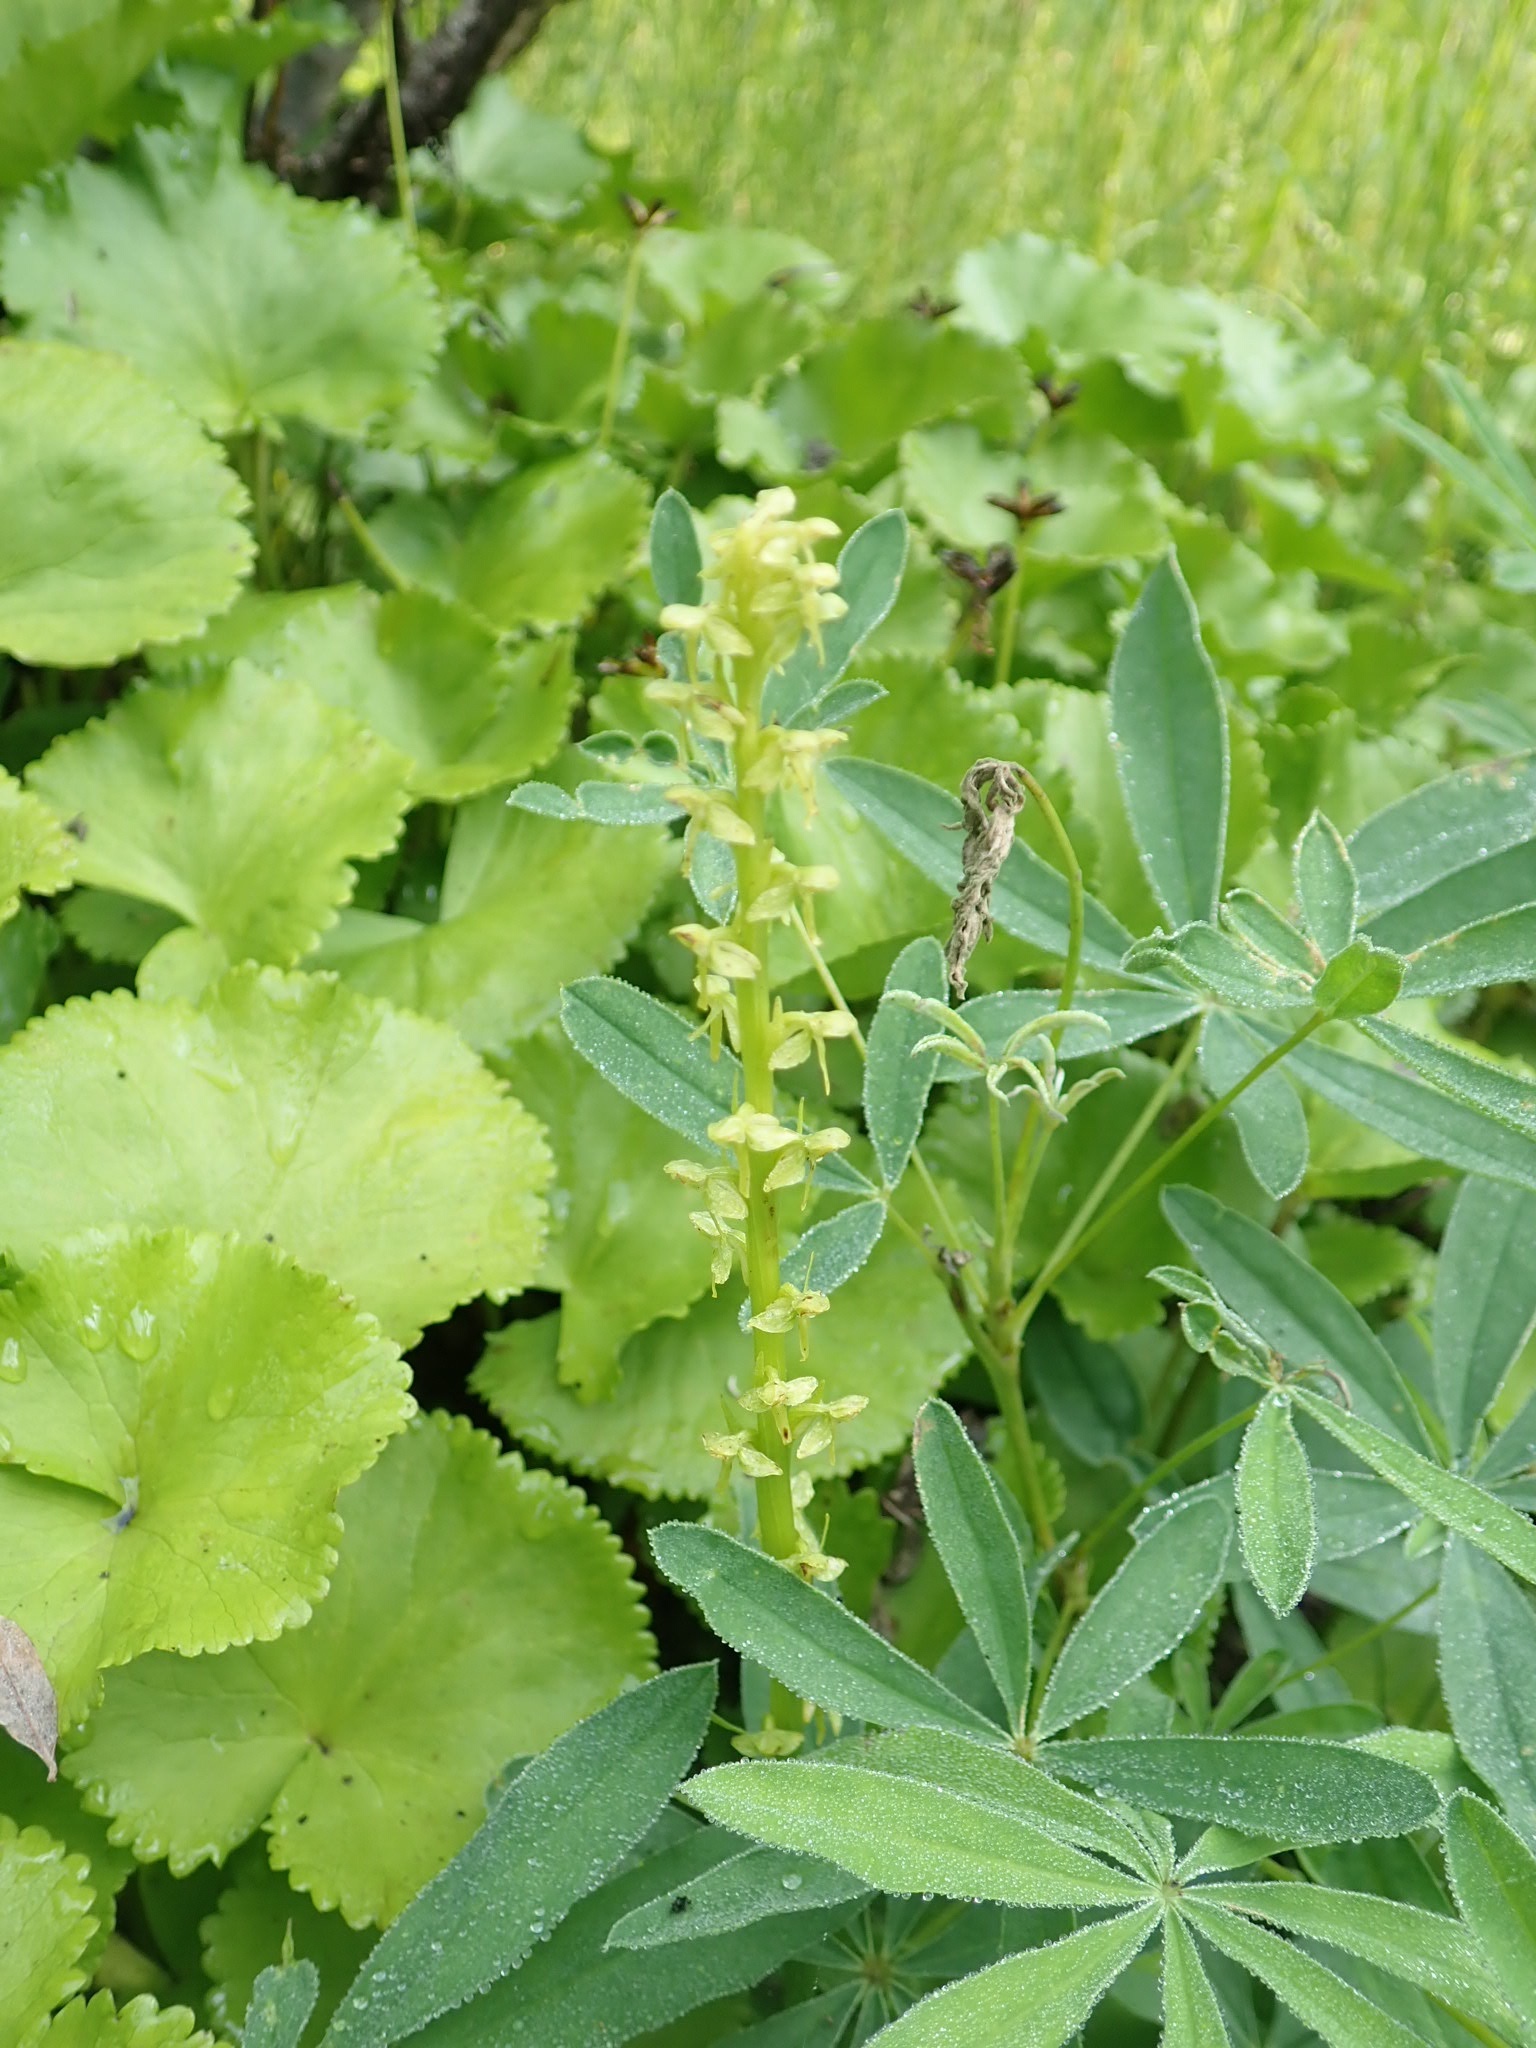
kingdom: Plantae
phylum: Tracheophyta
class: Liliopsida
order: Asparagales
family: Orchidaceae
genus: Platanthera
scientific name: Platanthera stricta
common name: Slender bog orchid
